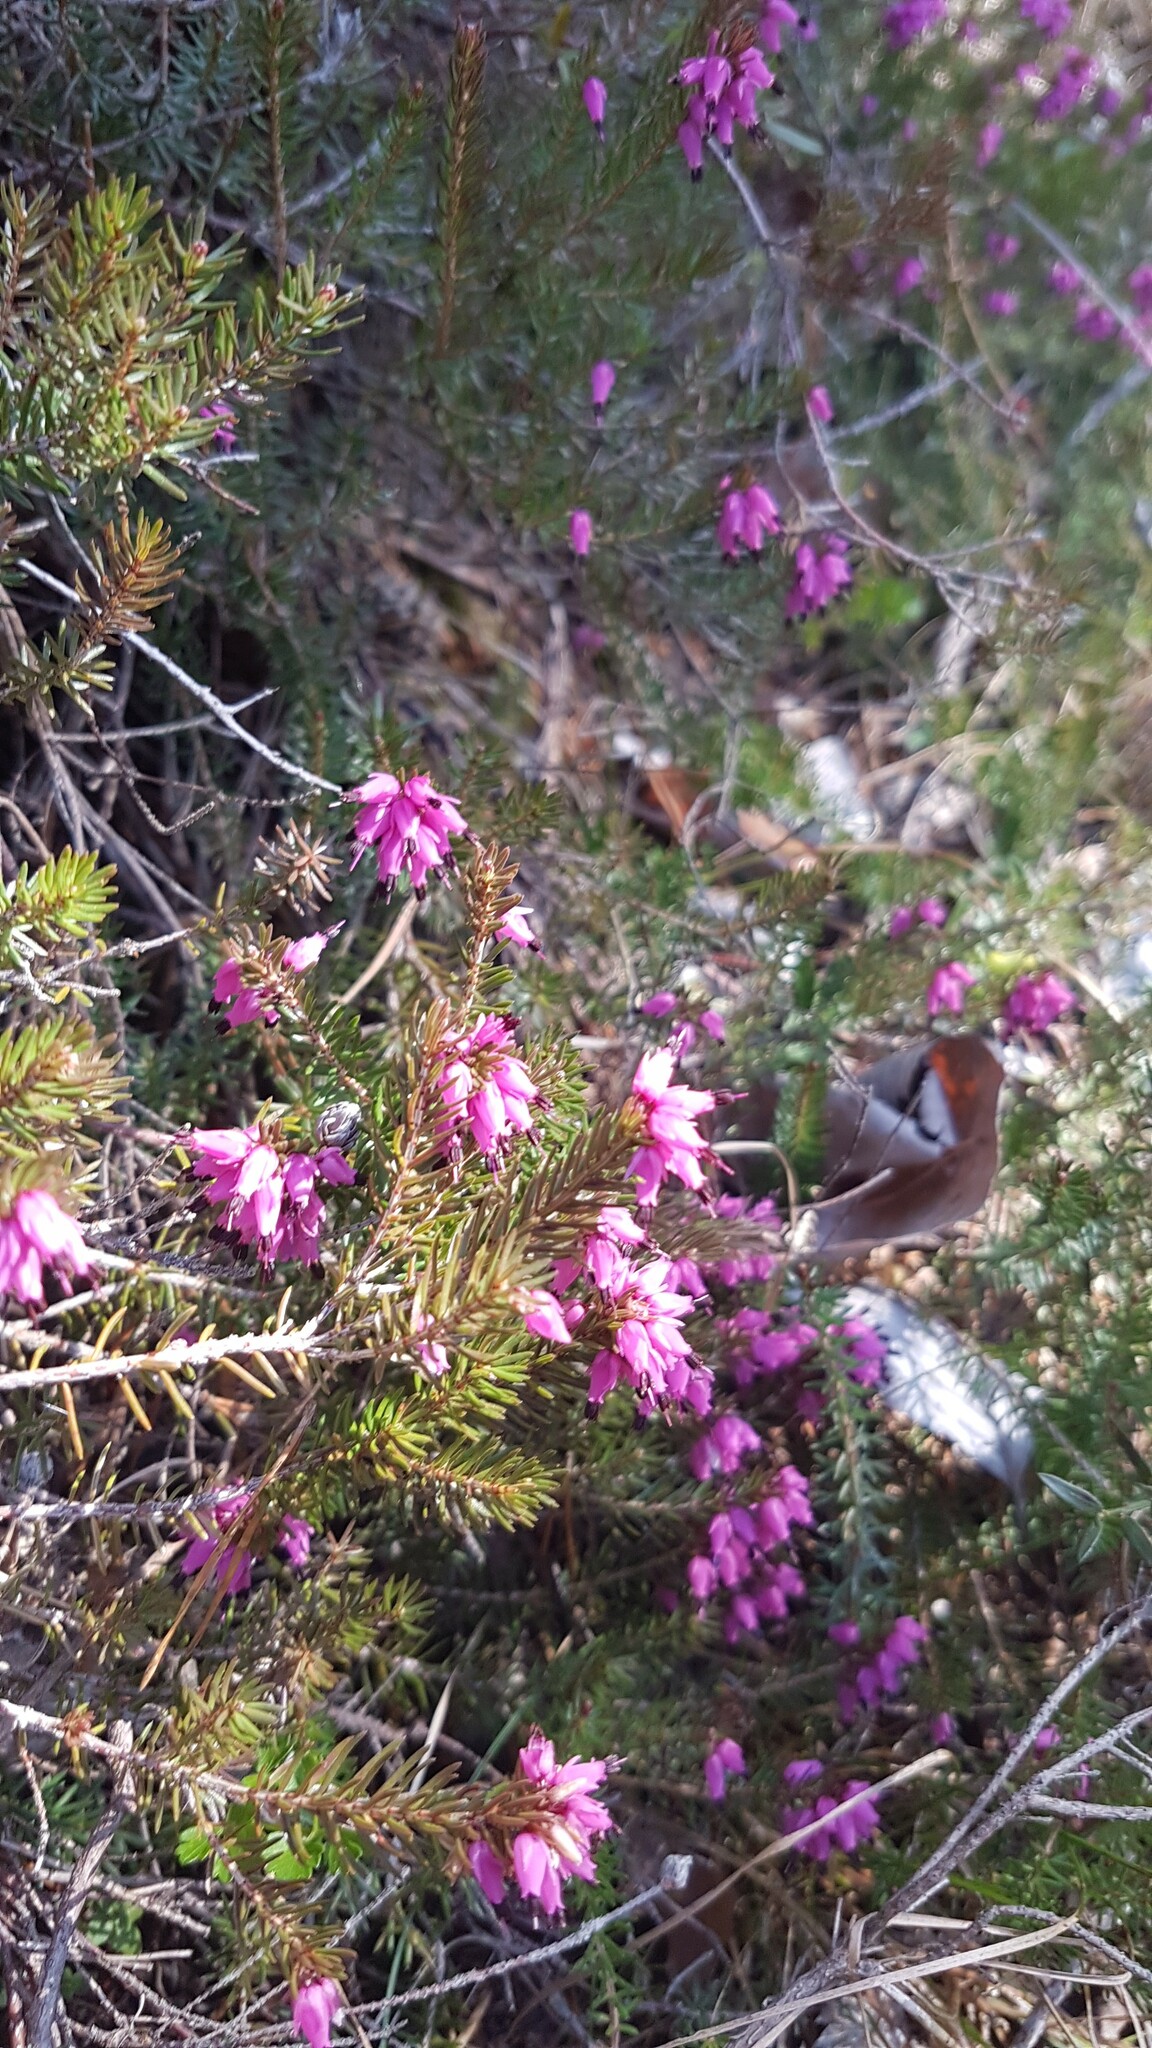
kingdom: Plantae
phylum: Tracheophyta
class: Magnoliopsida
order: Ericales
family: Ericaceae
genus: Erica
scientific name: Erica carnea
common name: Winter heath
